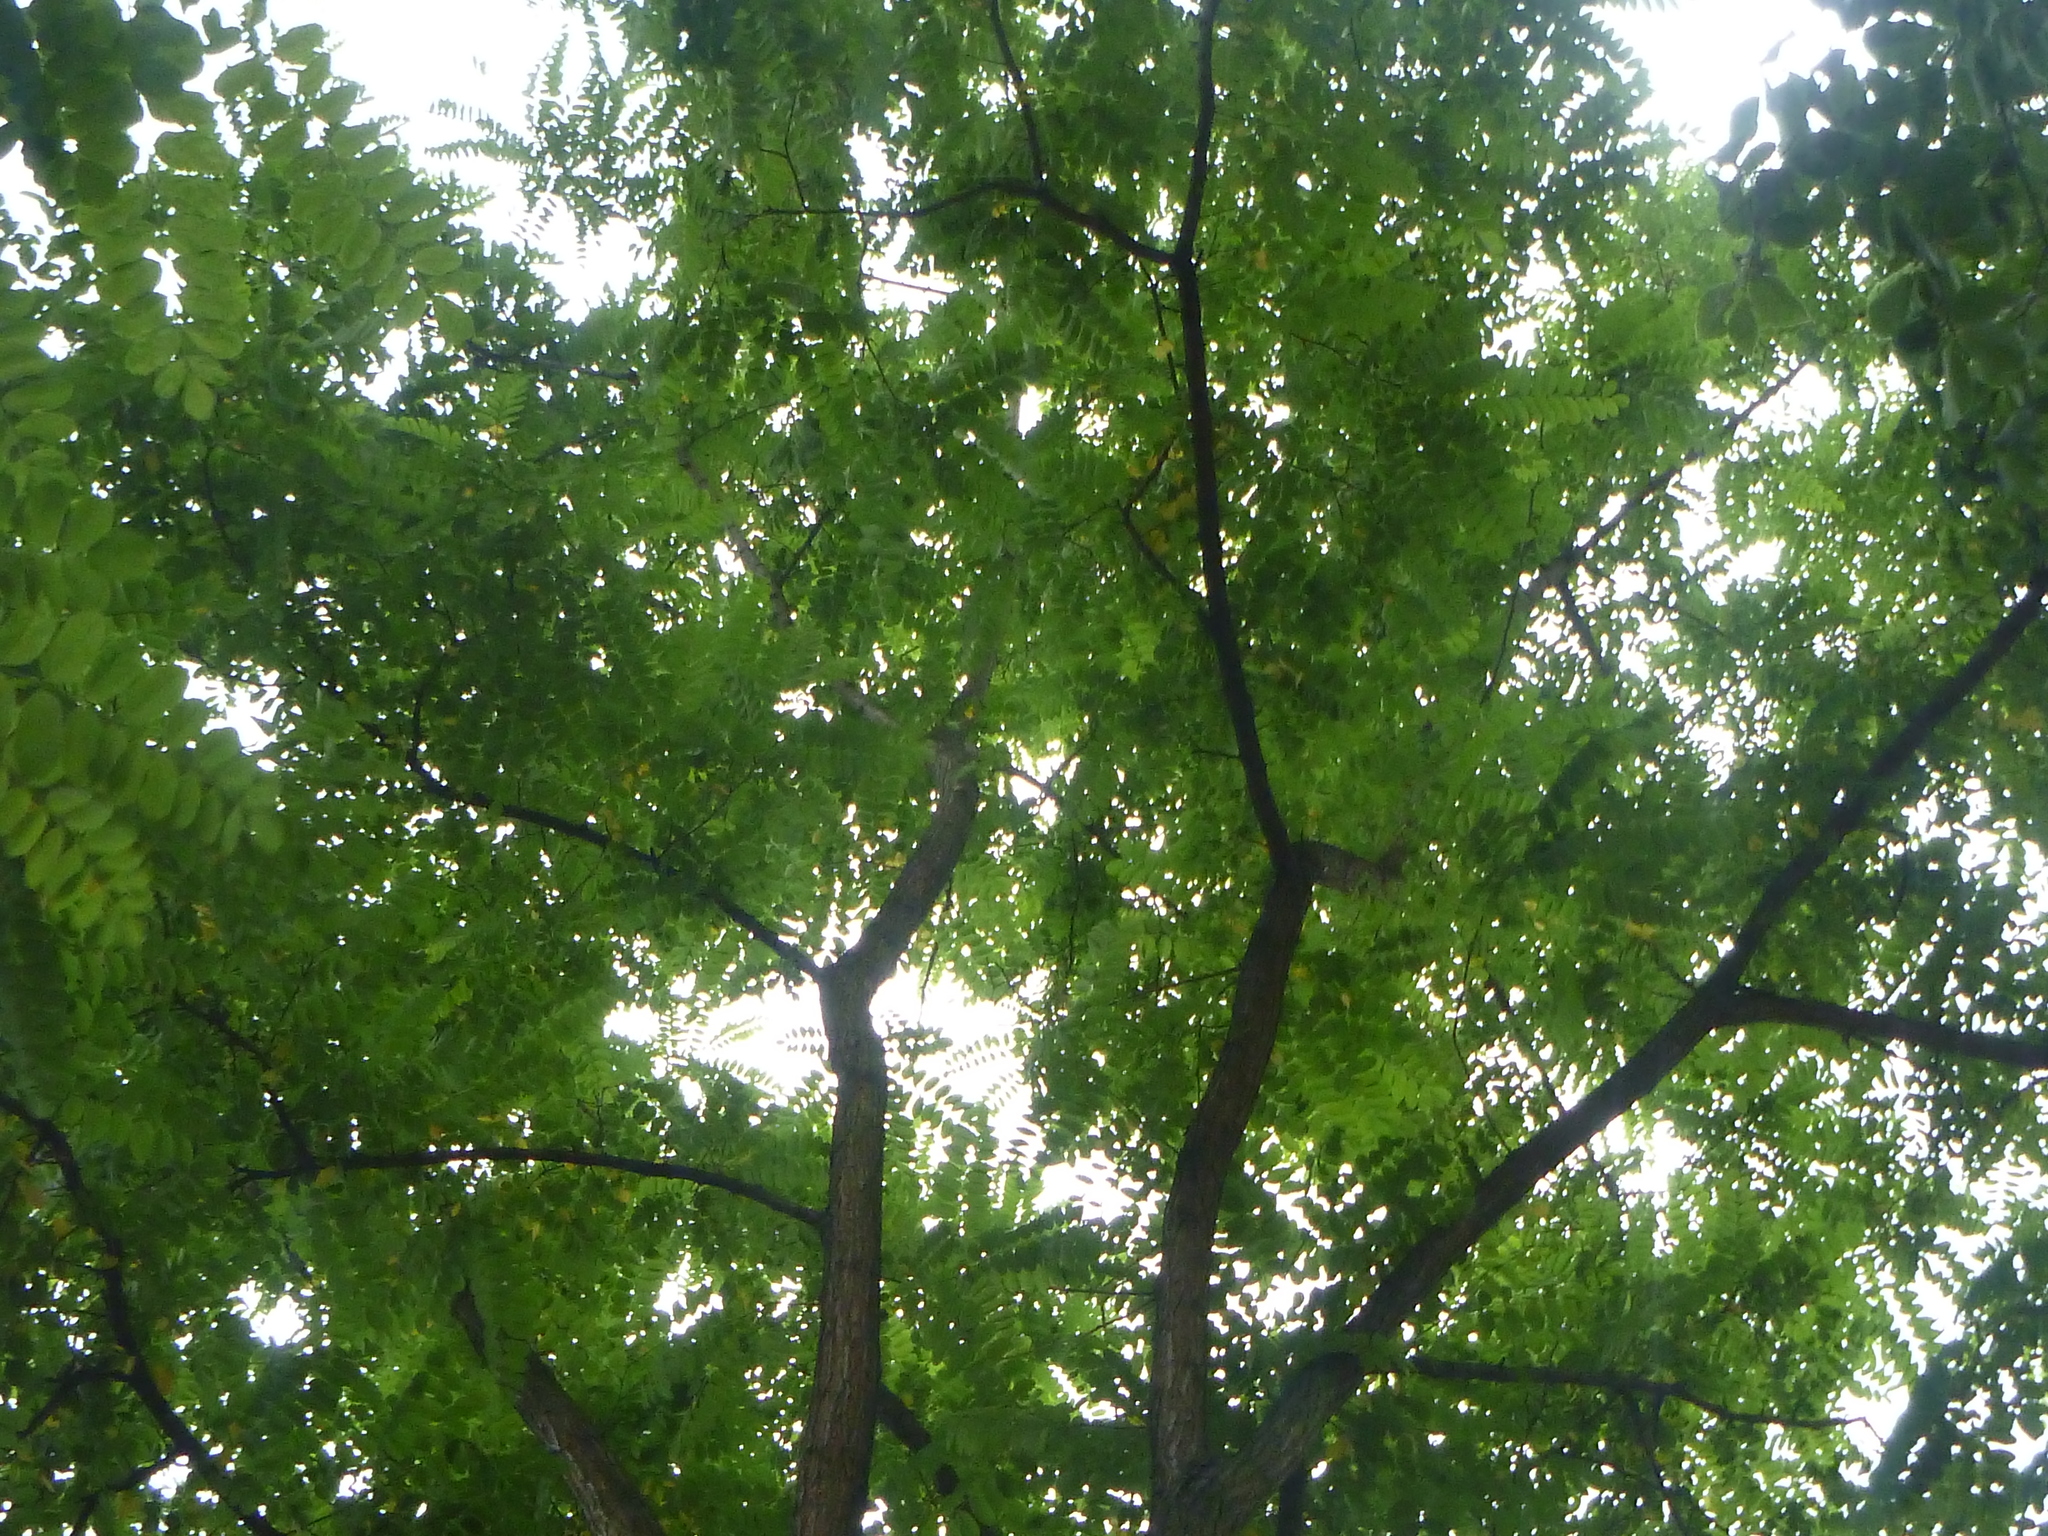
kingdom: Plantae
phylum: Tracheophyta
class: Magnoliopsida
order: Fabales
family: Fabaceae
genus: Robinia
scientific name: Robinia pseudoacacia
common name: Black locust
